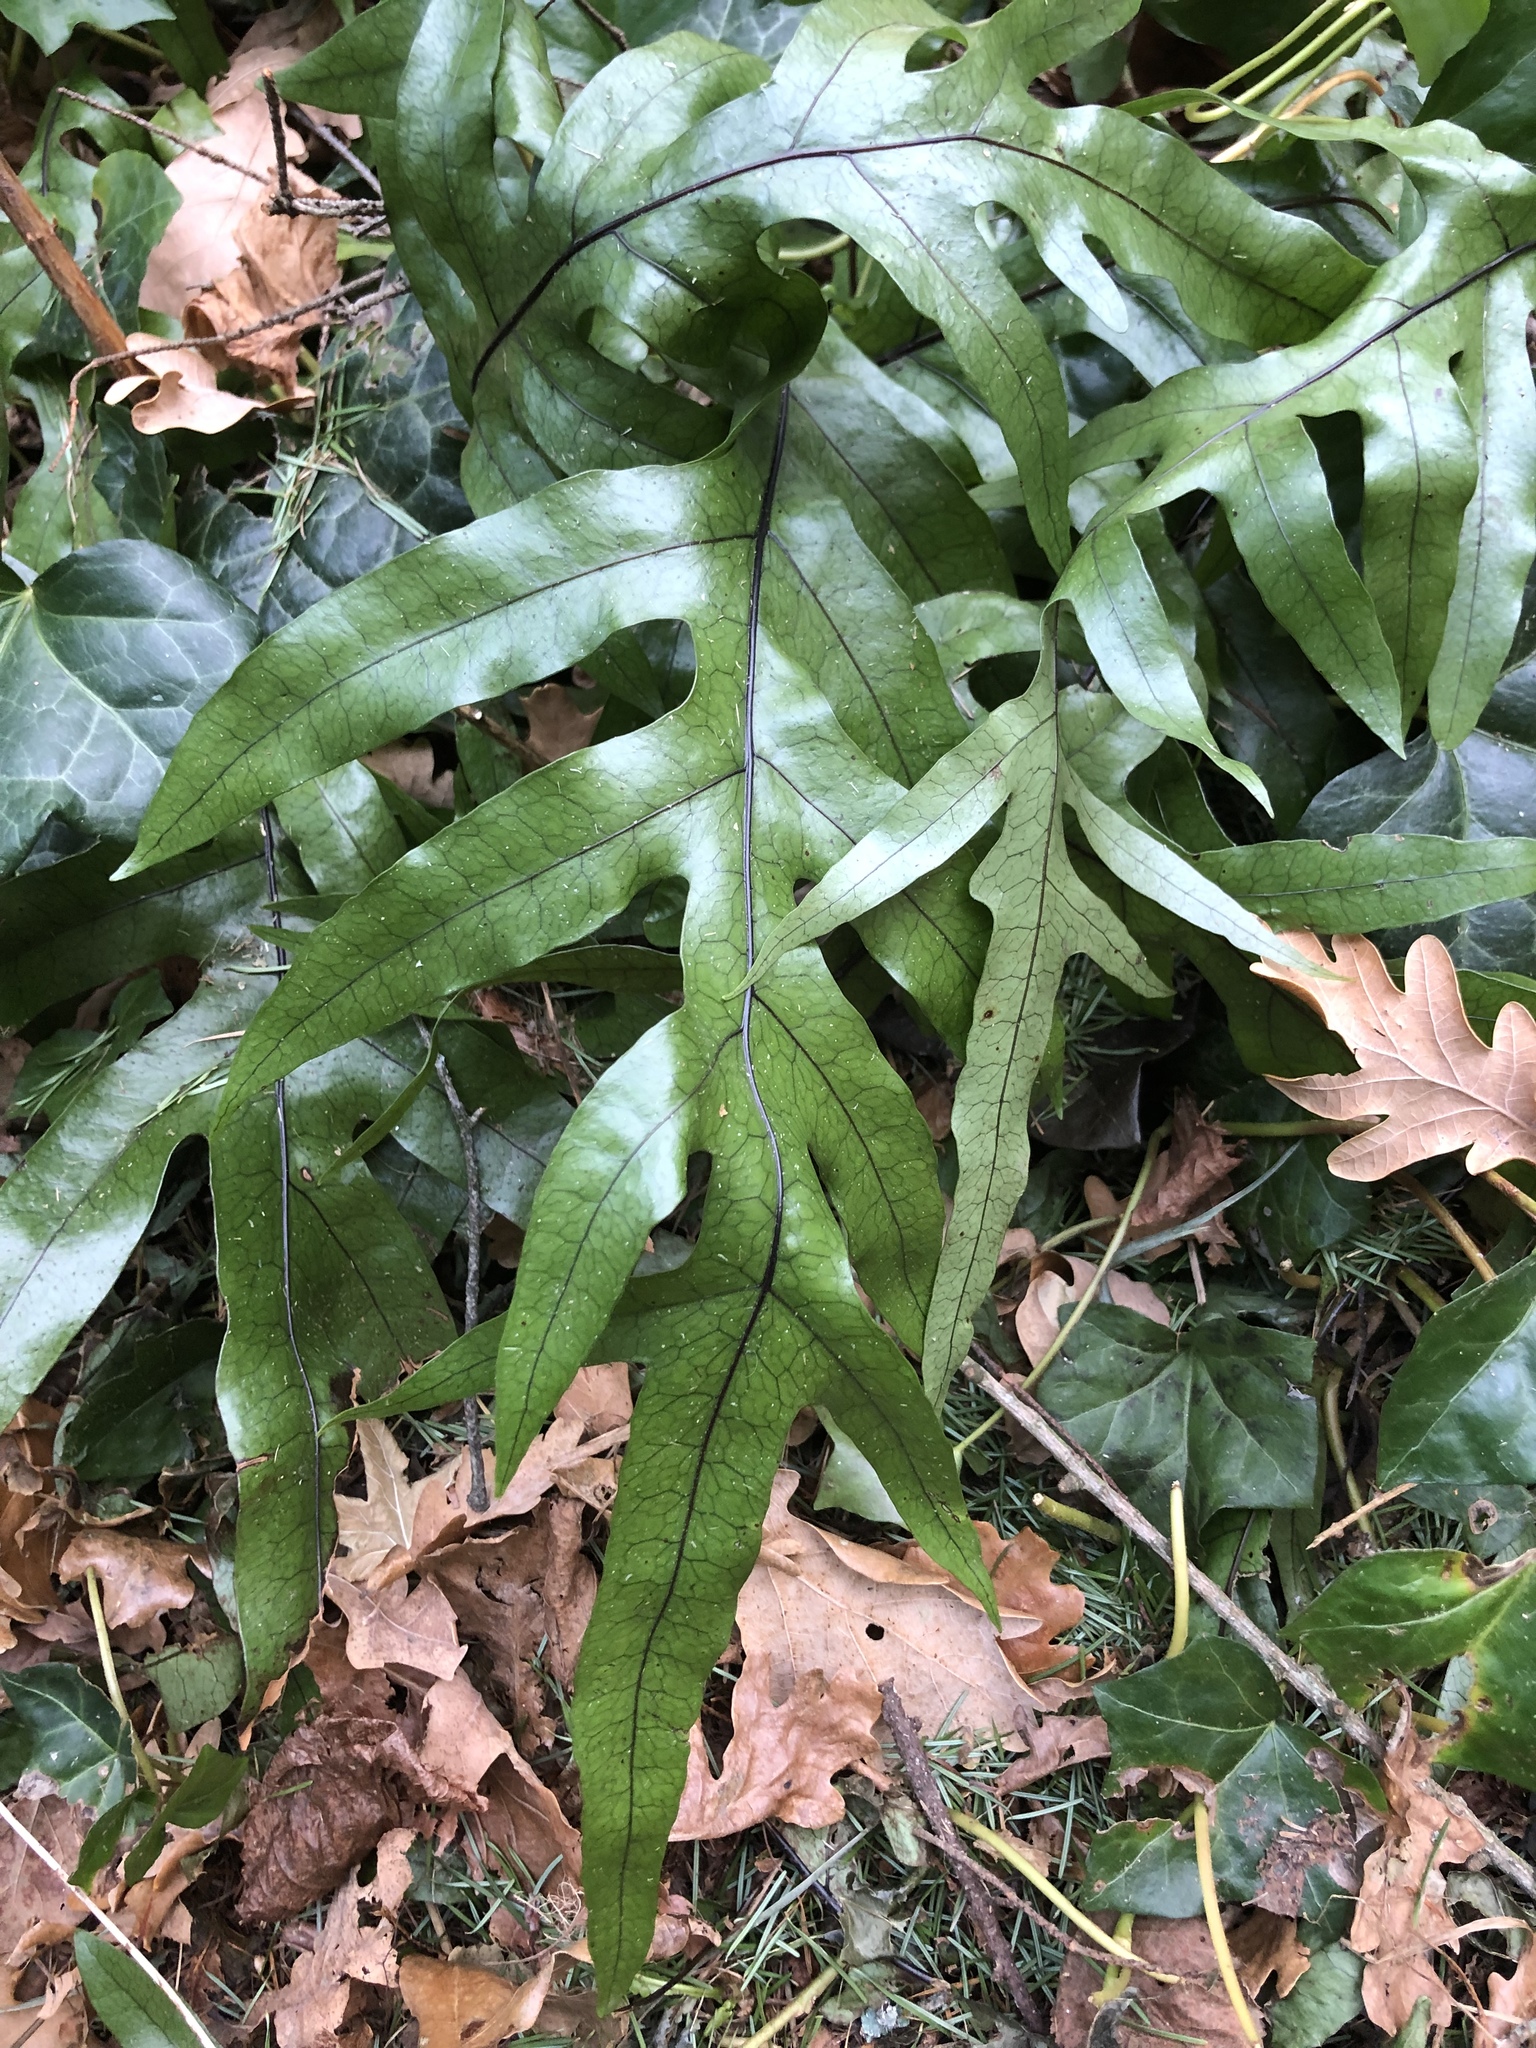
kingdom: Plantae
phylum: Tracheophyta
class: Polypodiopsida
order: Polypodiales
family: Polypodiaceae
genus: Lecanopteris
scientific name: Lecanopteris pustulata
